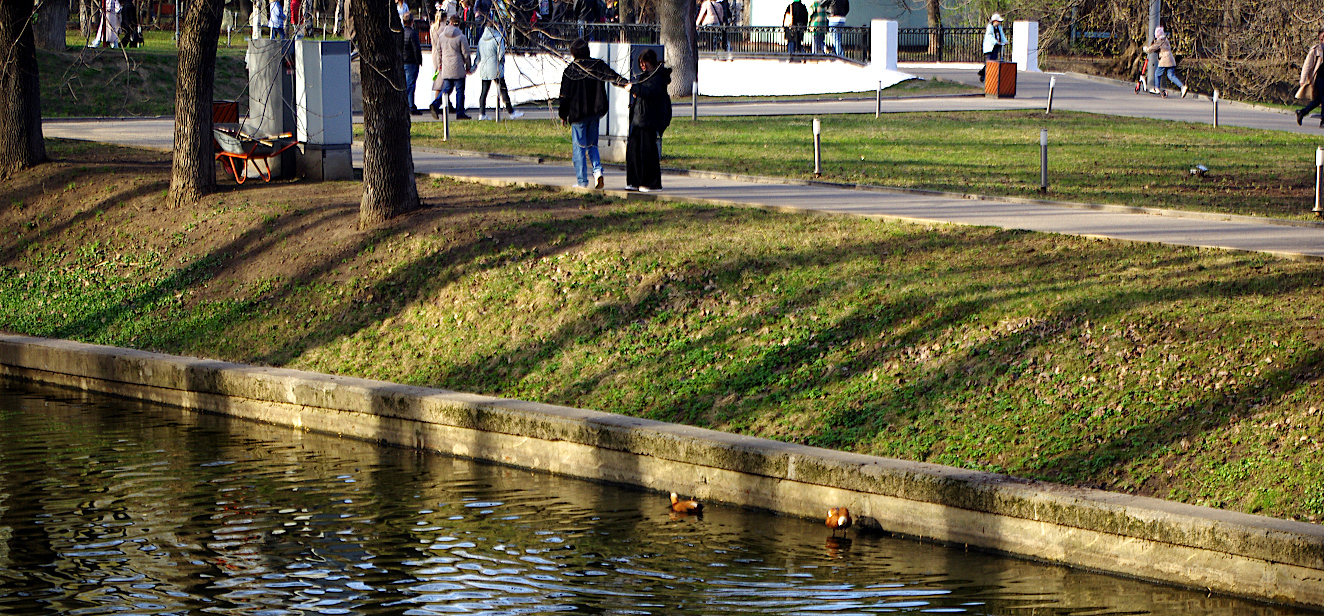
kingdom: Animalia
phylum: Chordata
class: Aves
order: Anseriformes
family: Anatidae
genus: Tadorna
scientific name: Tadorna ferruginea
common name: Ruddy shelduck
